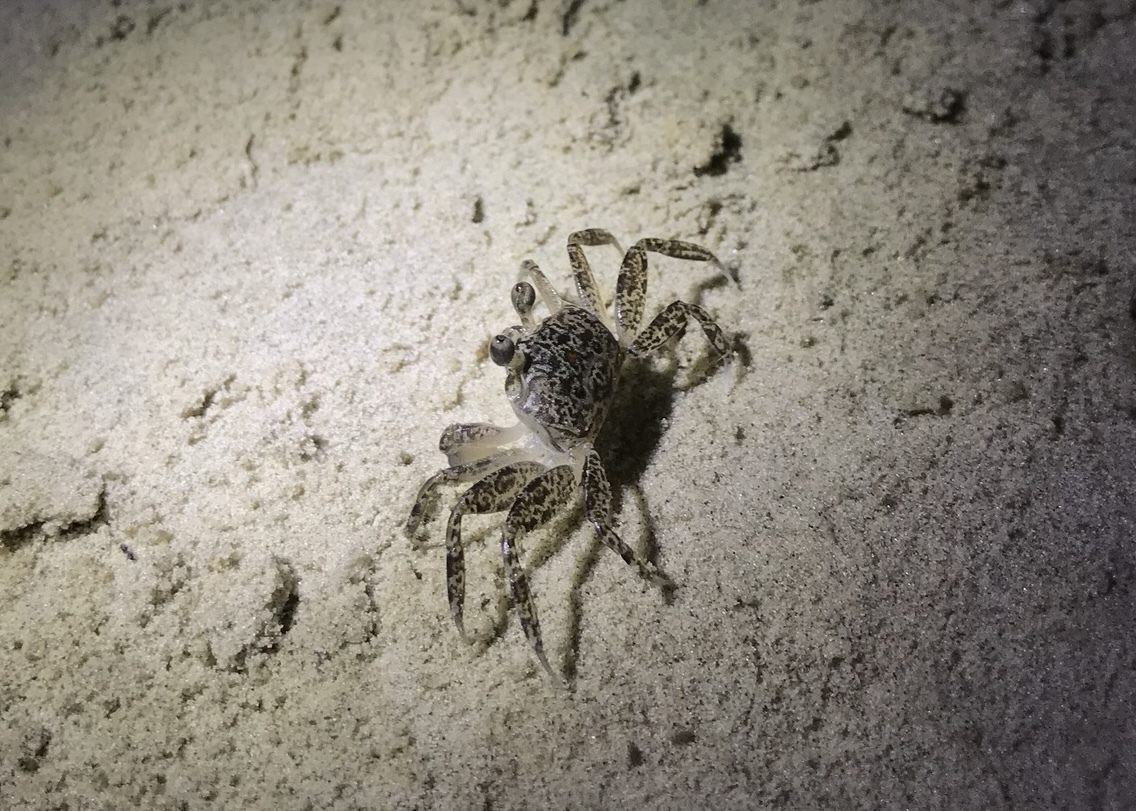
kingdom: Animalia
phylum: Arthropoda
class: Malacostraca
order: Decapoda
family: Ocypodidae
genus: Ocypode
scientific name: Ocypode quadrata
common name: Ghost crab
